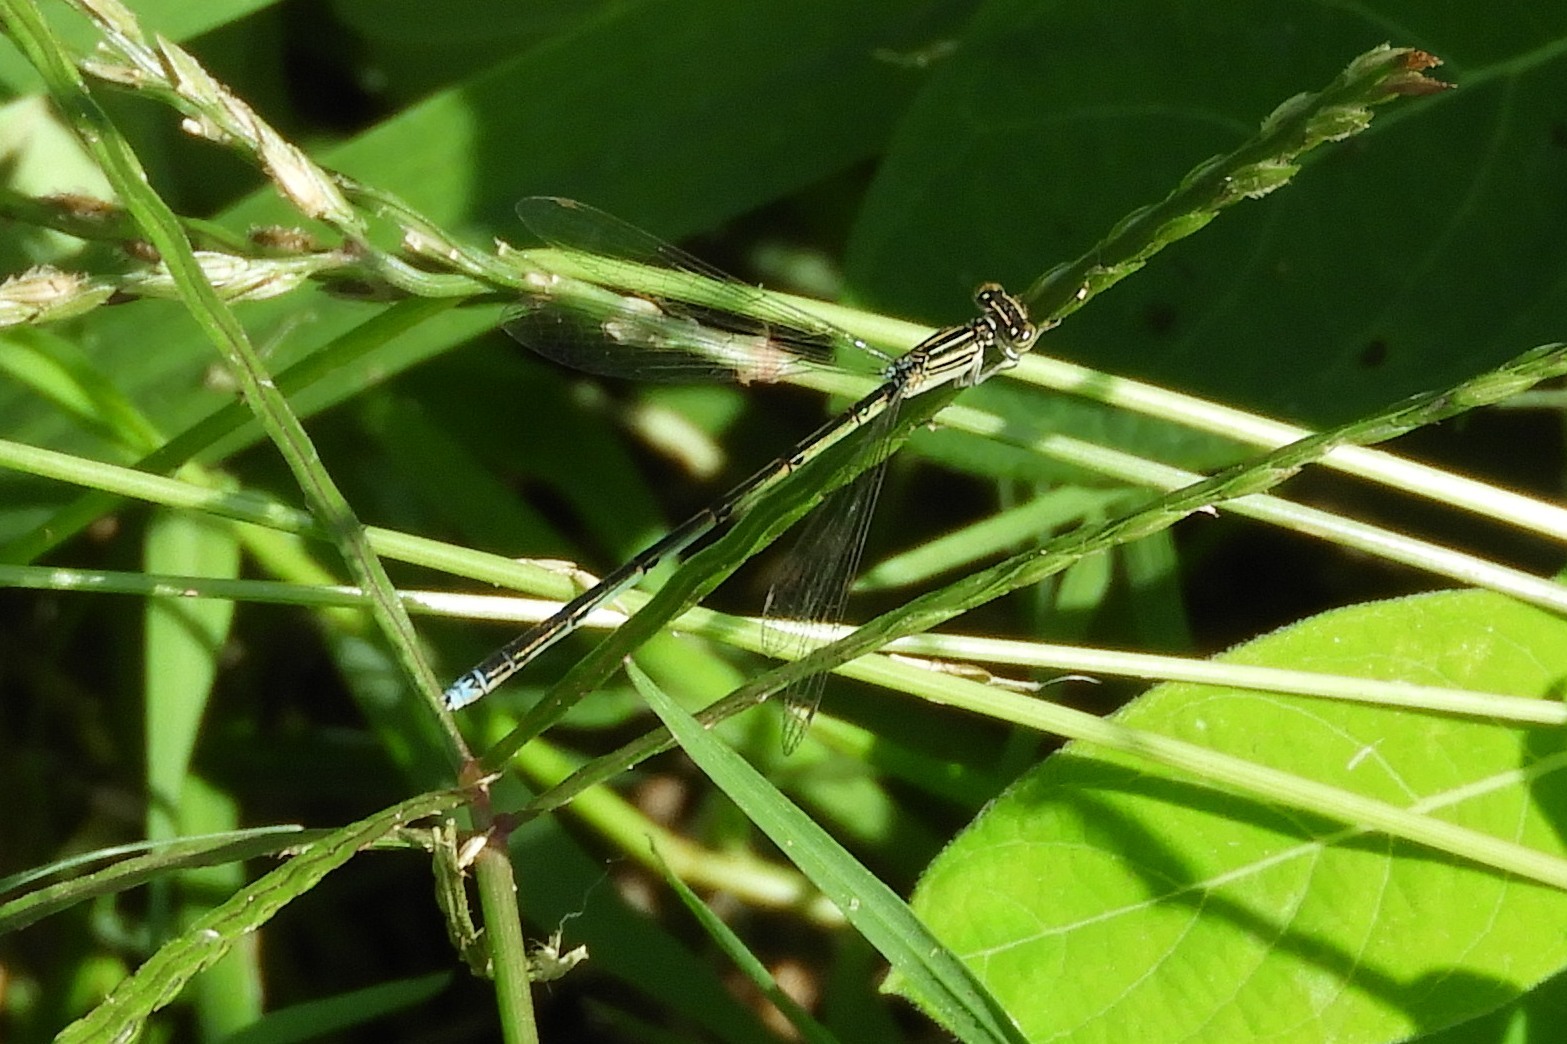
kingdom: Animalia
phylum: Arthropoda
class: Insecta
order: Odonata
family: Coenagrionidae
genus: Enallagma
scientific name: Enallagma basidens
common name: Double-striped bluet
